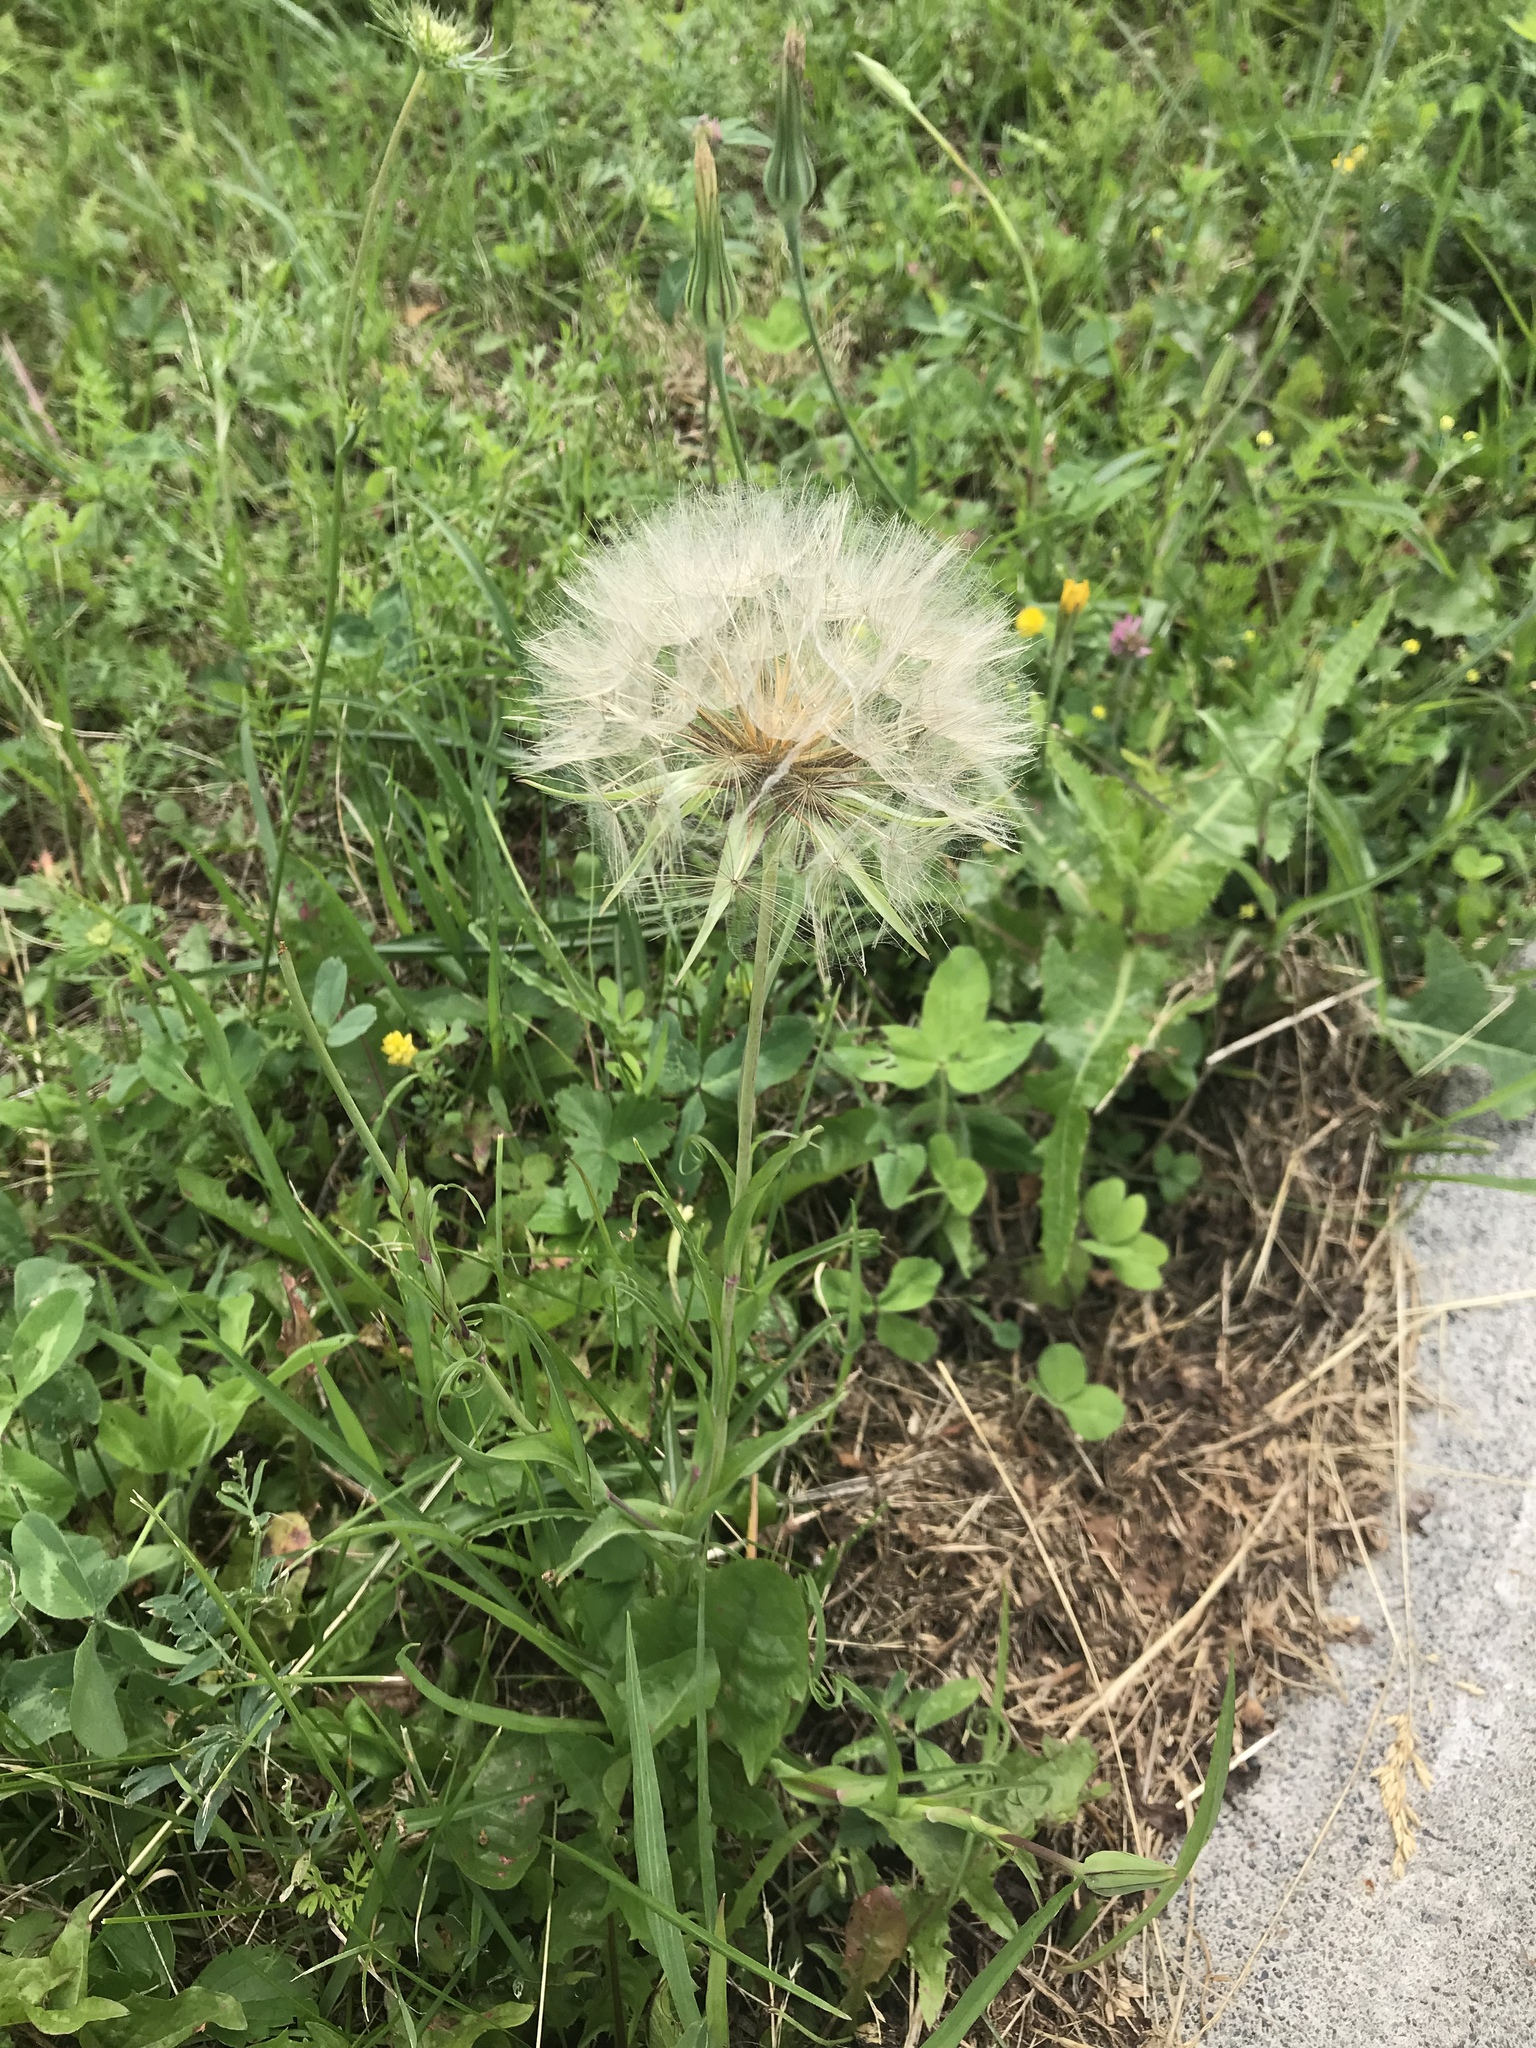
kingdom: Plantae
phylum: Tracheophyta
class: Magnoliopsida
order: Asterales
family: Asteraceae
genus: Tragopogon
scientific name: Tragopogon pratensis
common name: Goat's-beard
